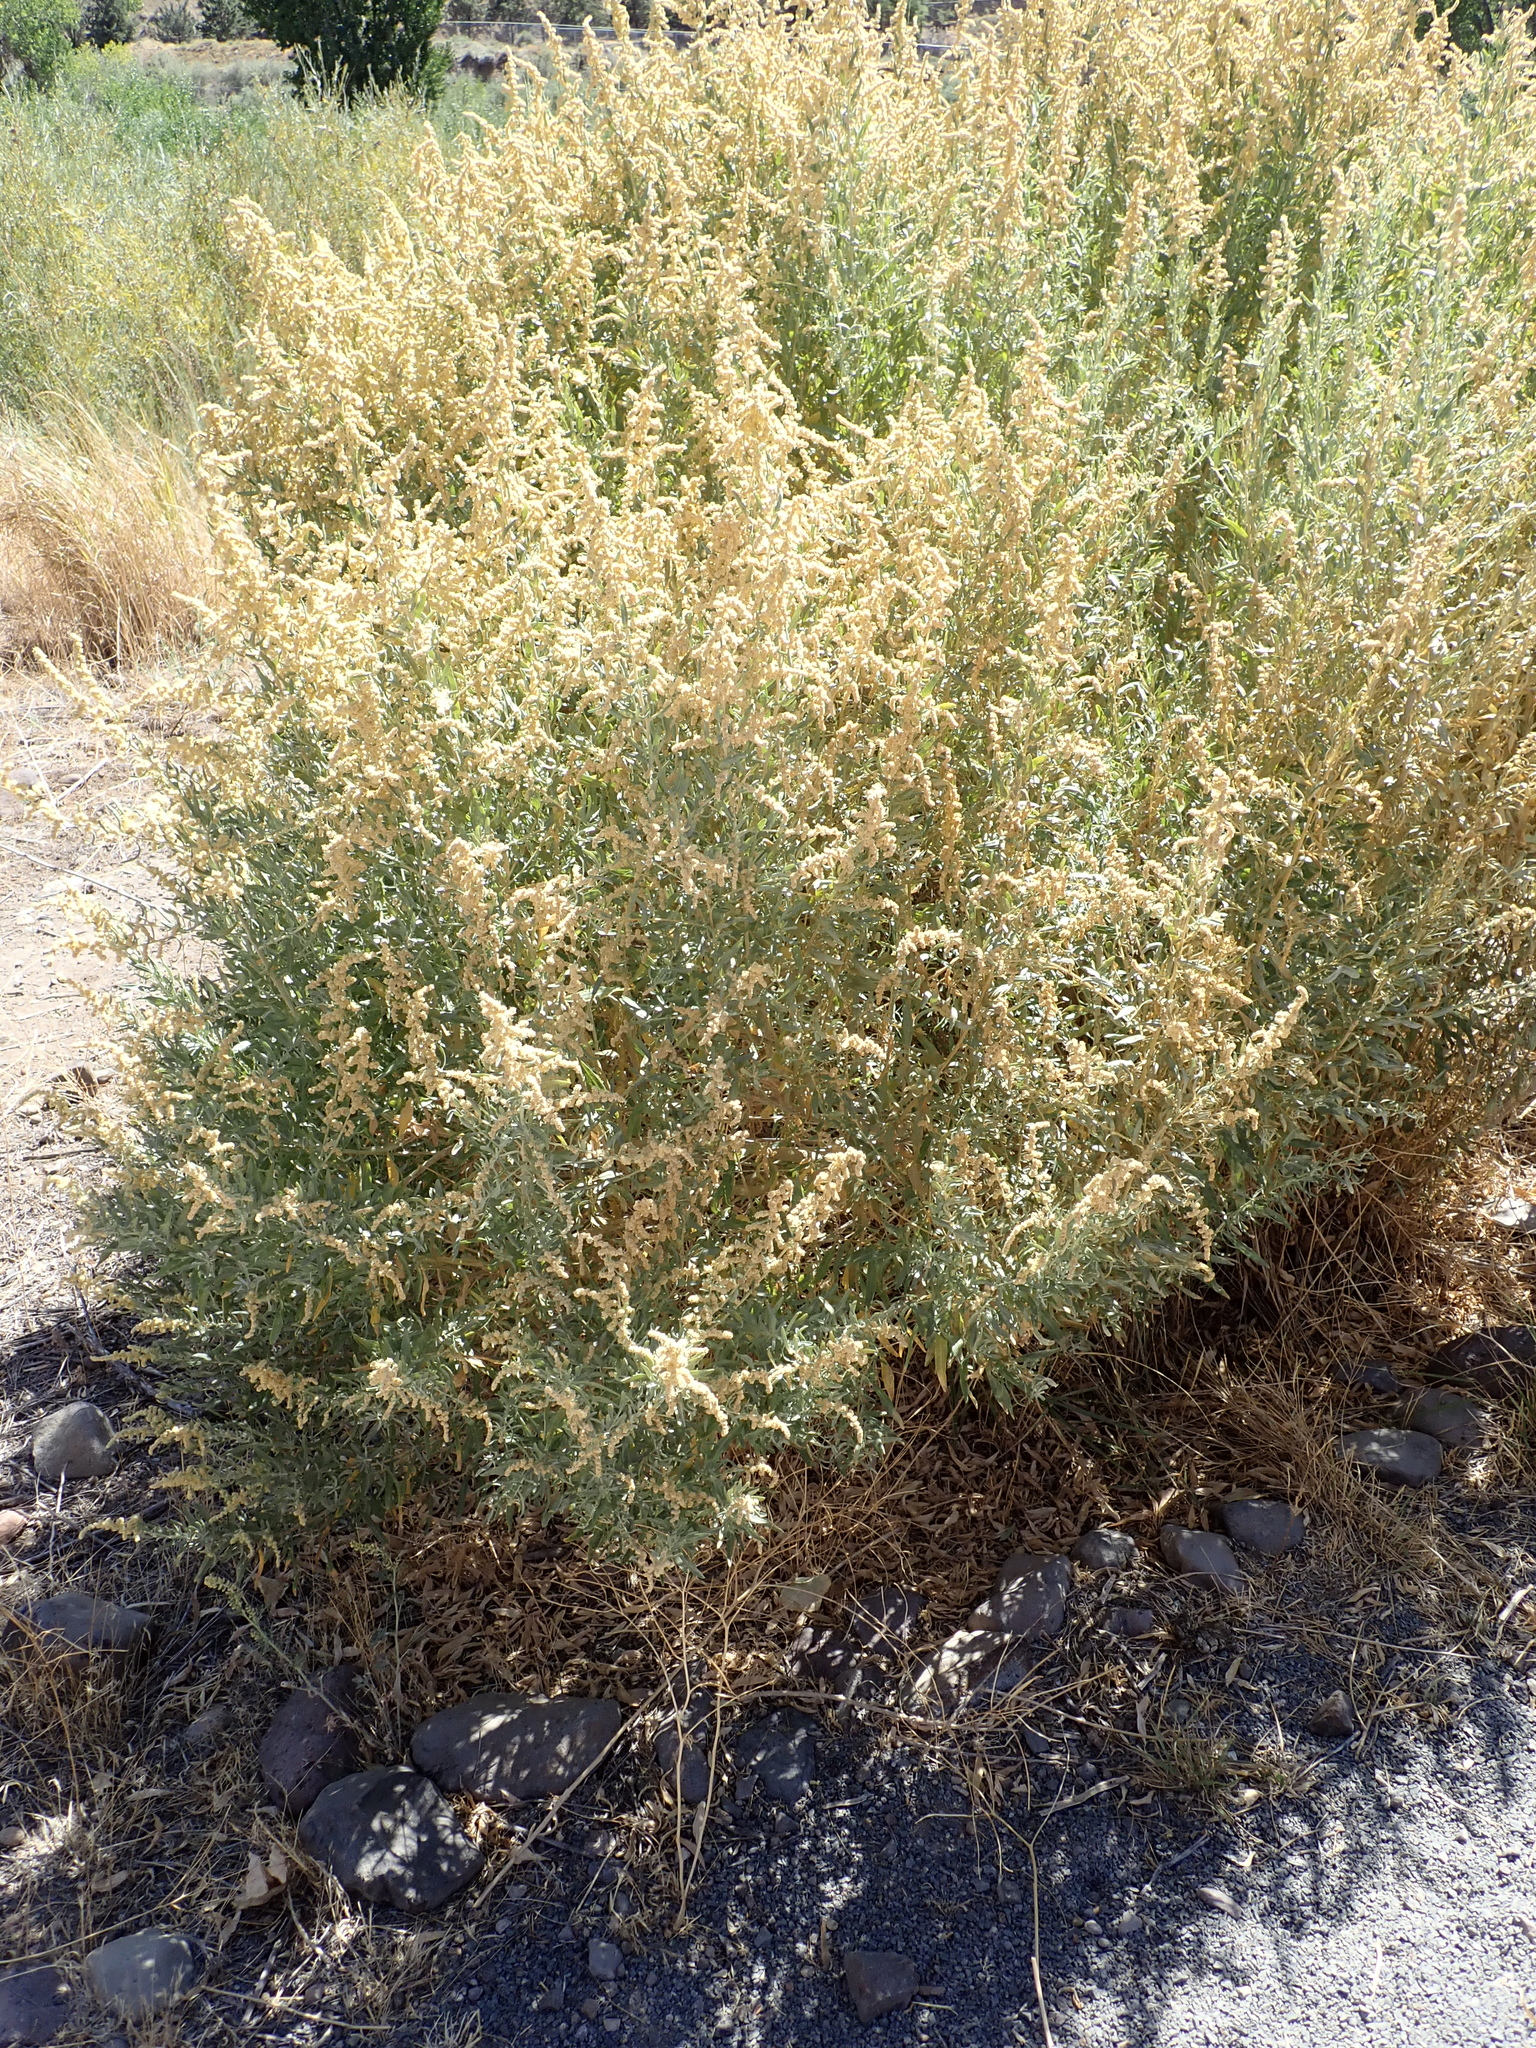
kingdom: Plantae
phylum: Tracheophyta
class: Magnoliopsida
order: Caryophyllales
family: Amaranthaceae
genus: Atriplex
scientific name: Atriplex canescens
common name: Four-wing saltbush
